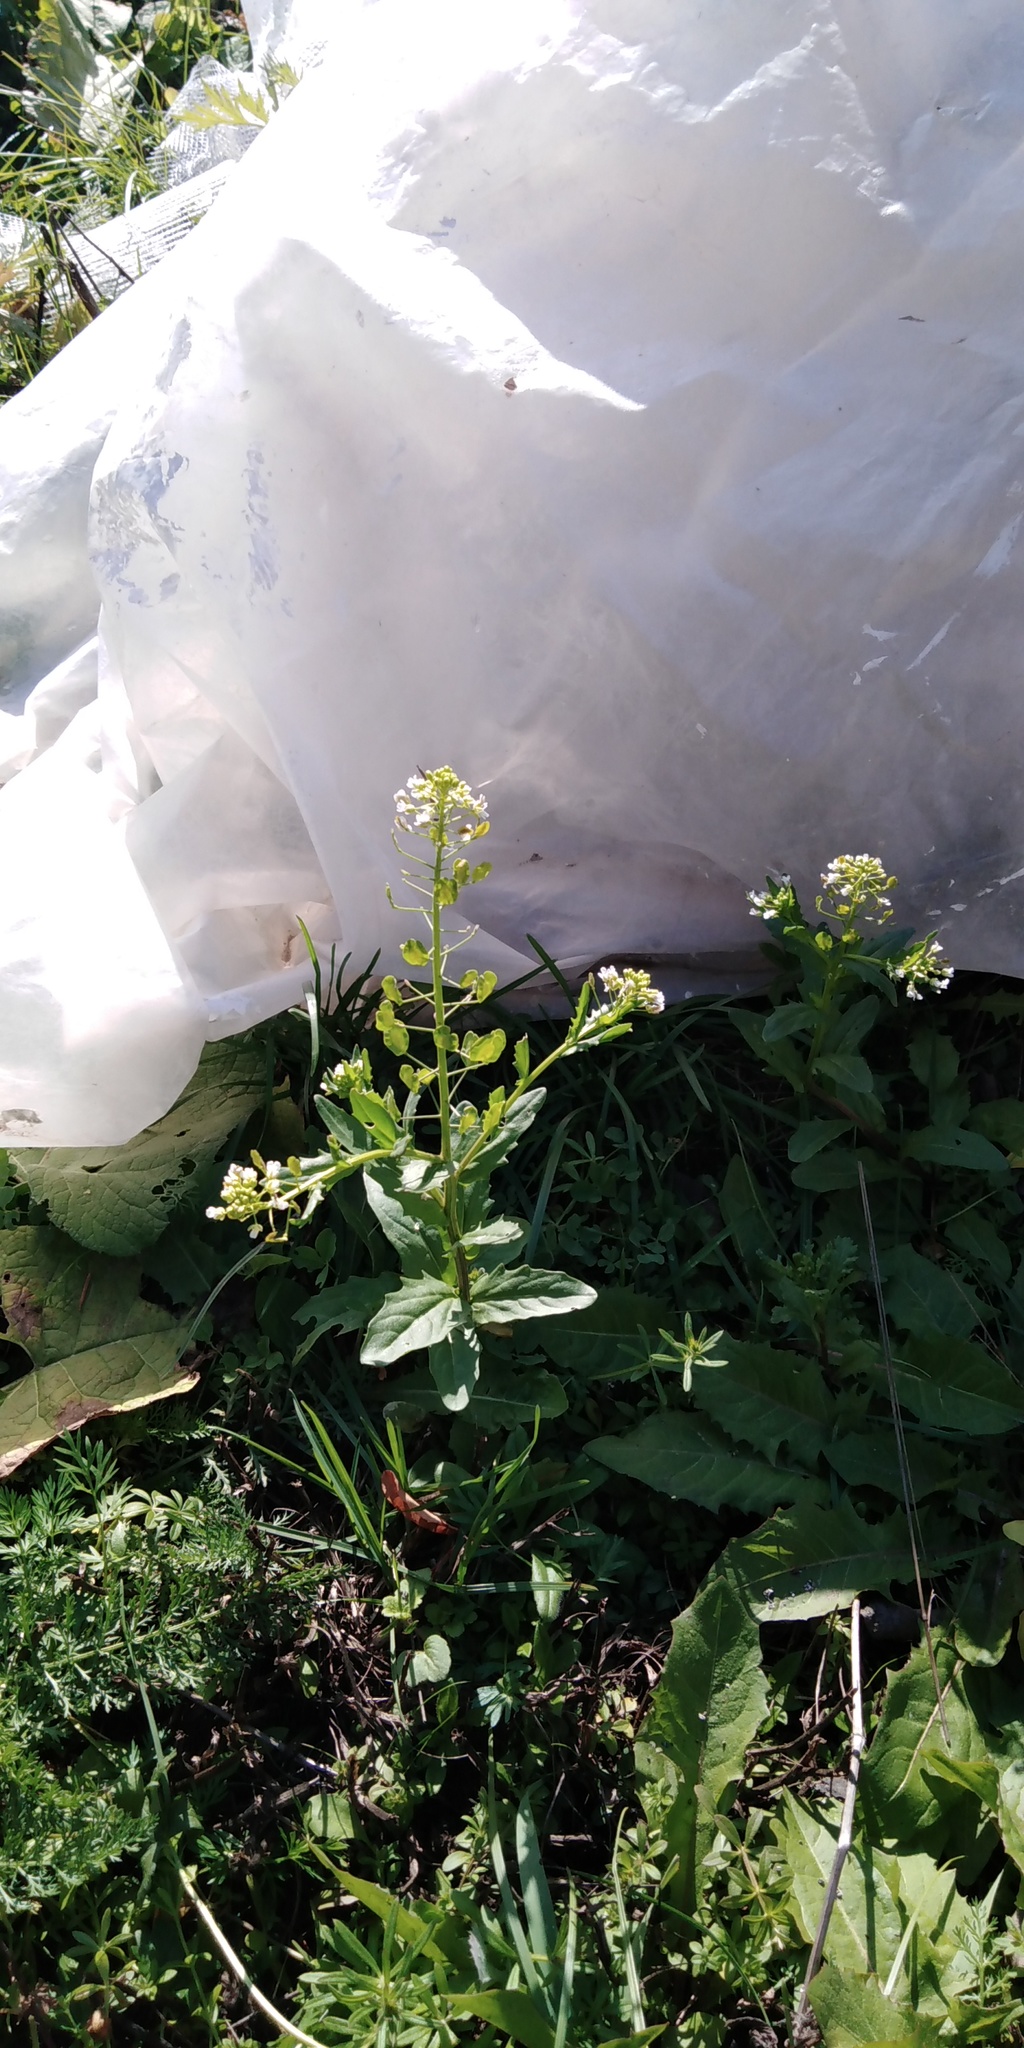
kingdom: Plantae
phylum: Tracheophyta
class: Magnoliopsida
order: Brassicales
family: Brassicaceae
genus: Thlaspi
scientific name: Thlaspi arvense
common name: Field pennycress
